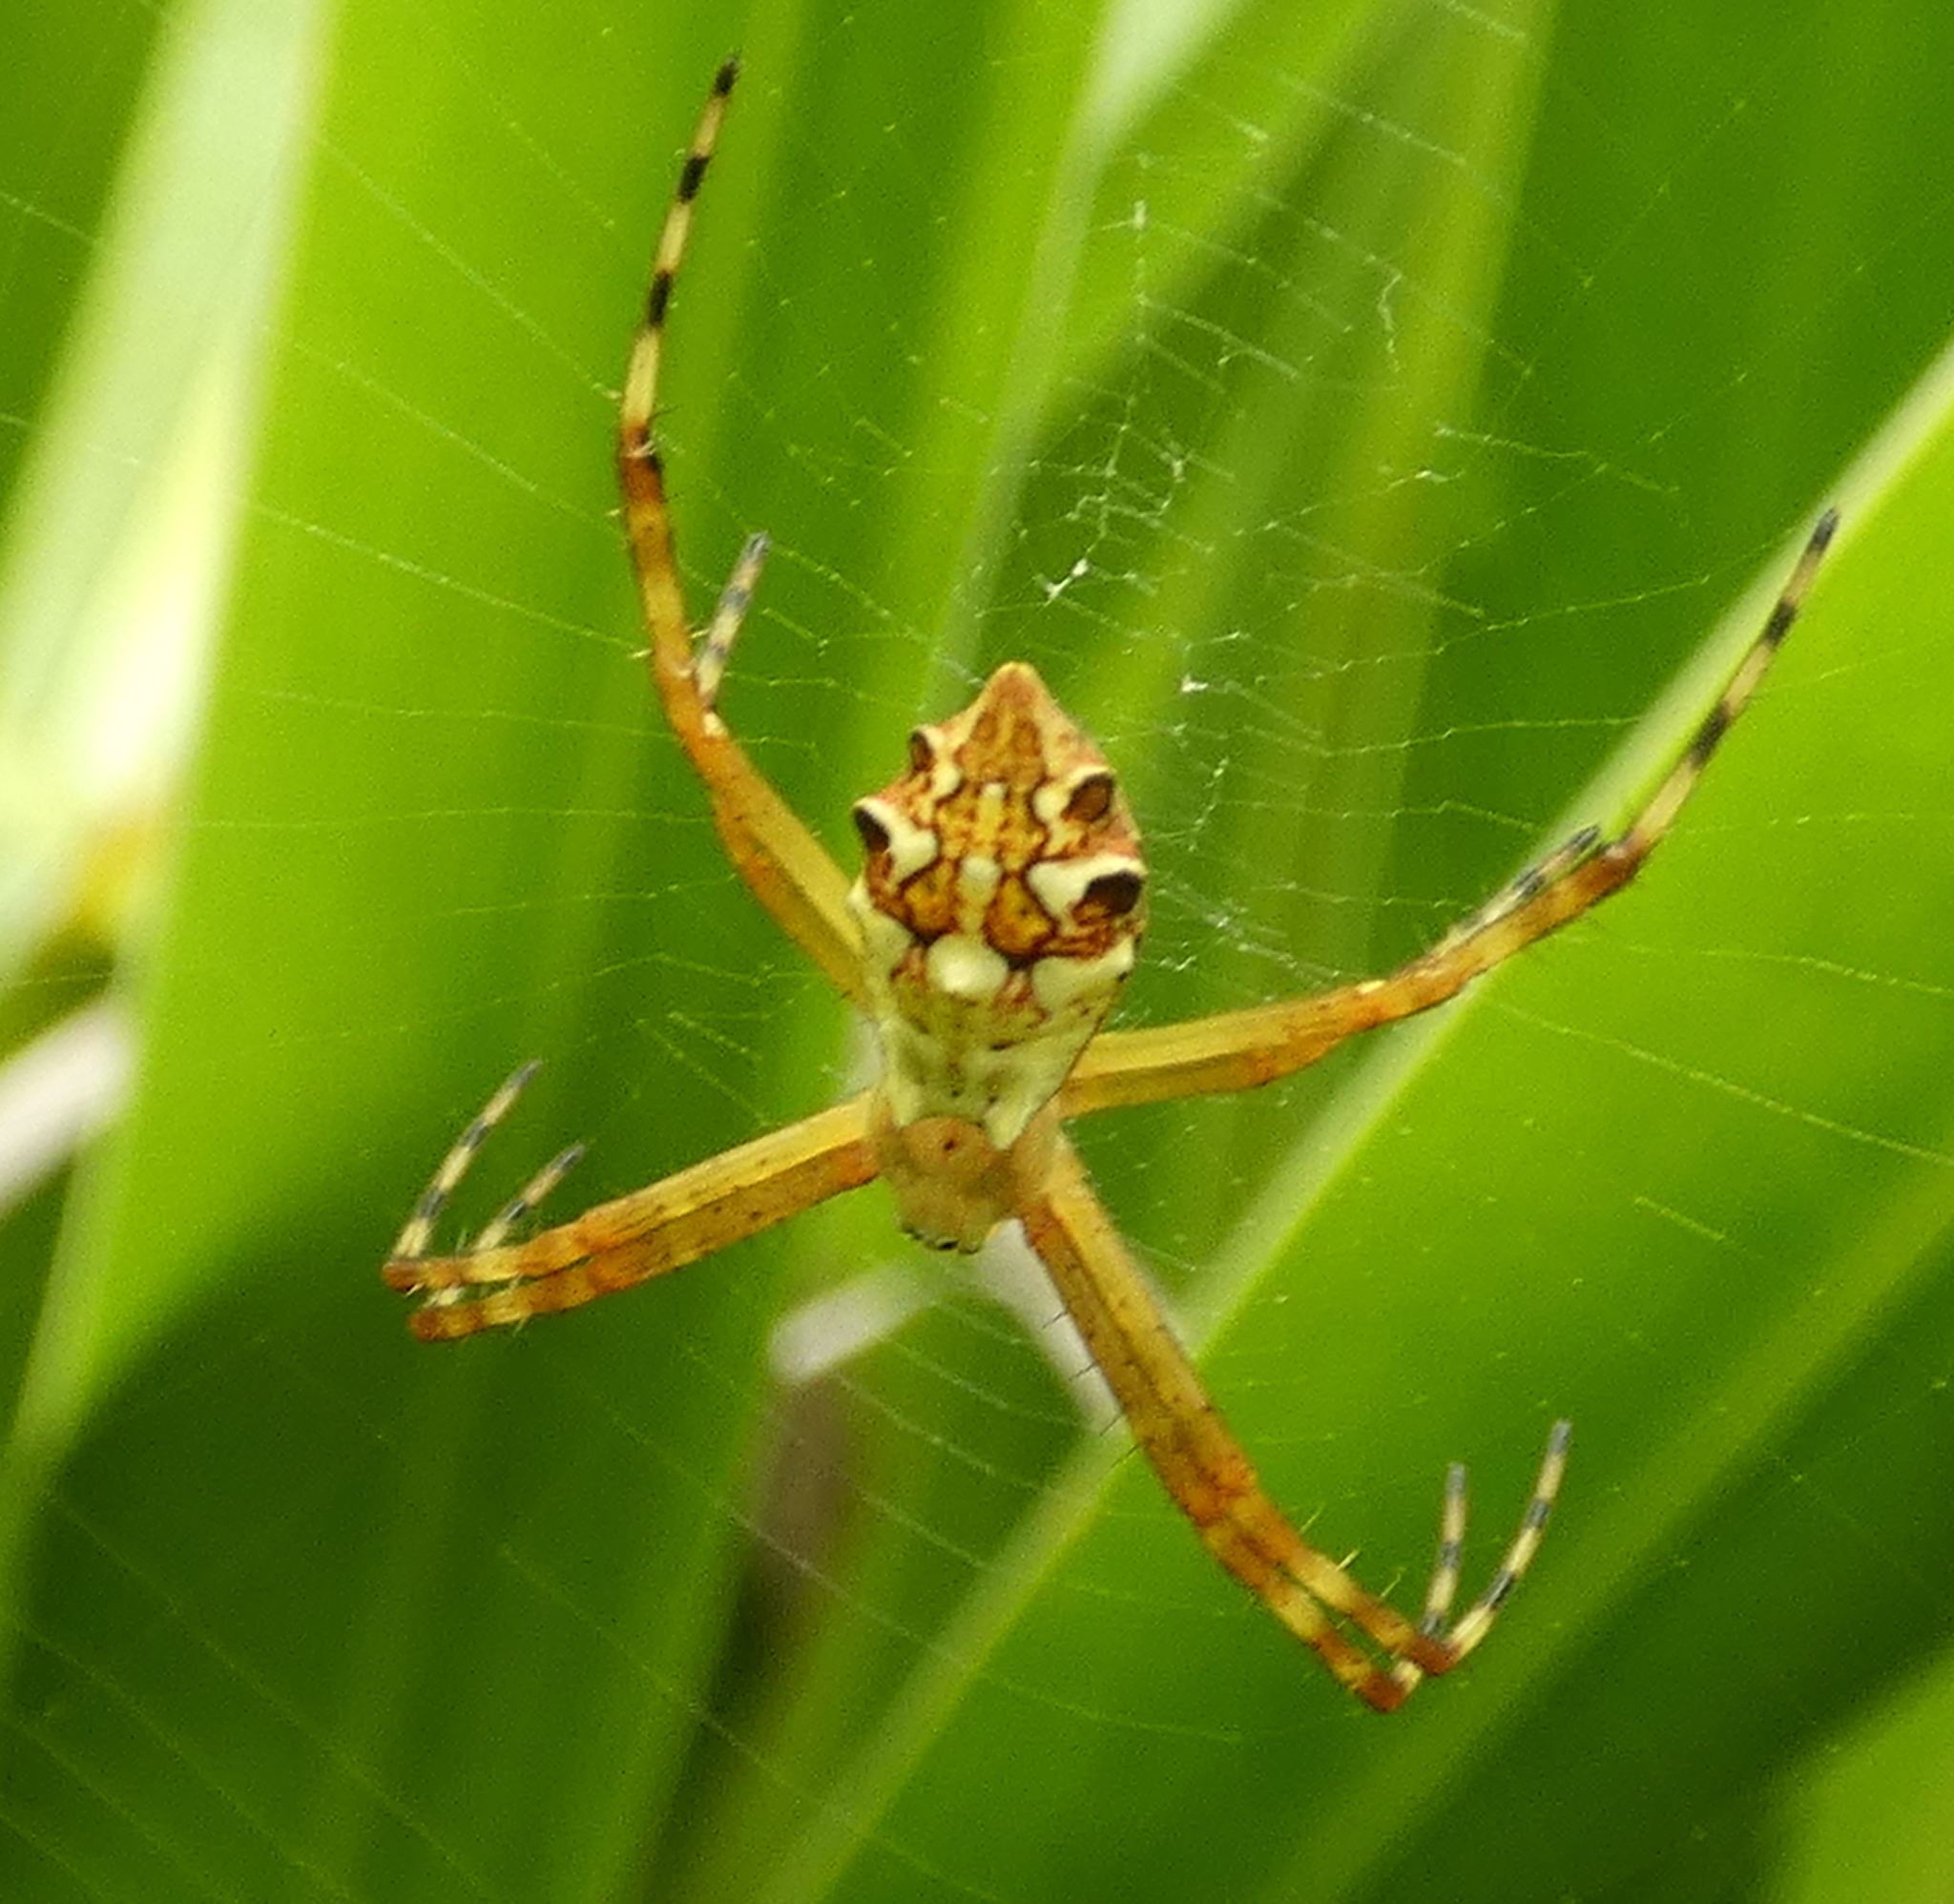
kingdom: Animalia
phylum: Arthropoda
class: Arachnida
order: Araneae
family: Araneidae
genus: Argiope
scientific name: Argiope argentata
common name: Orb weavers
